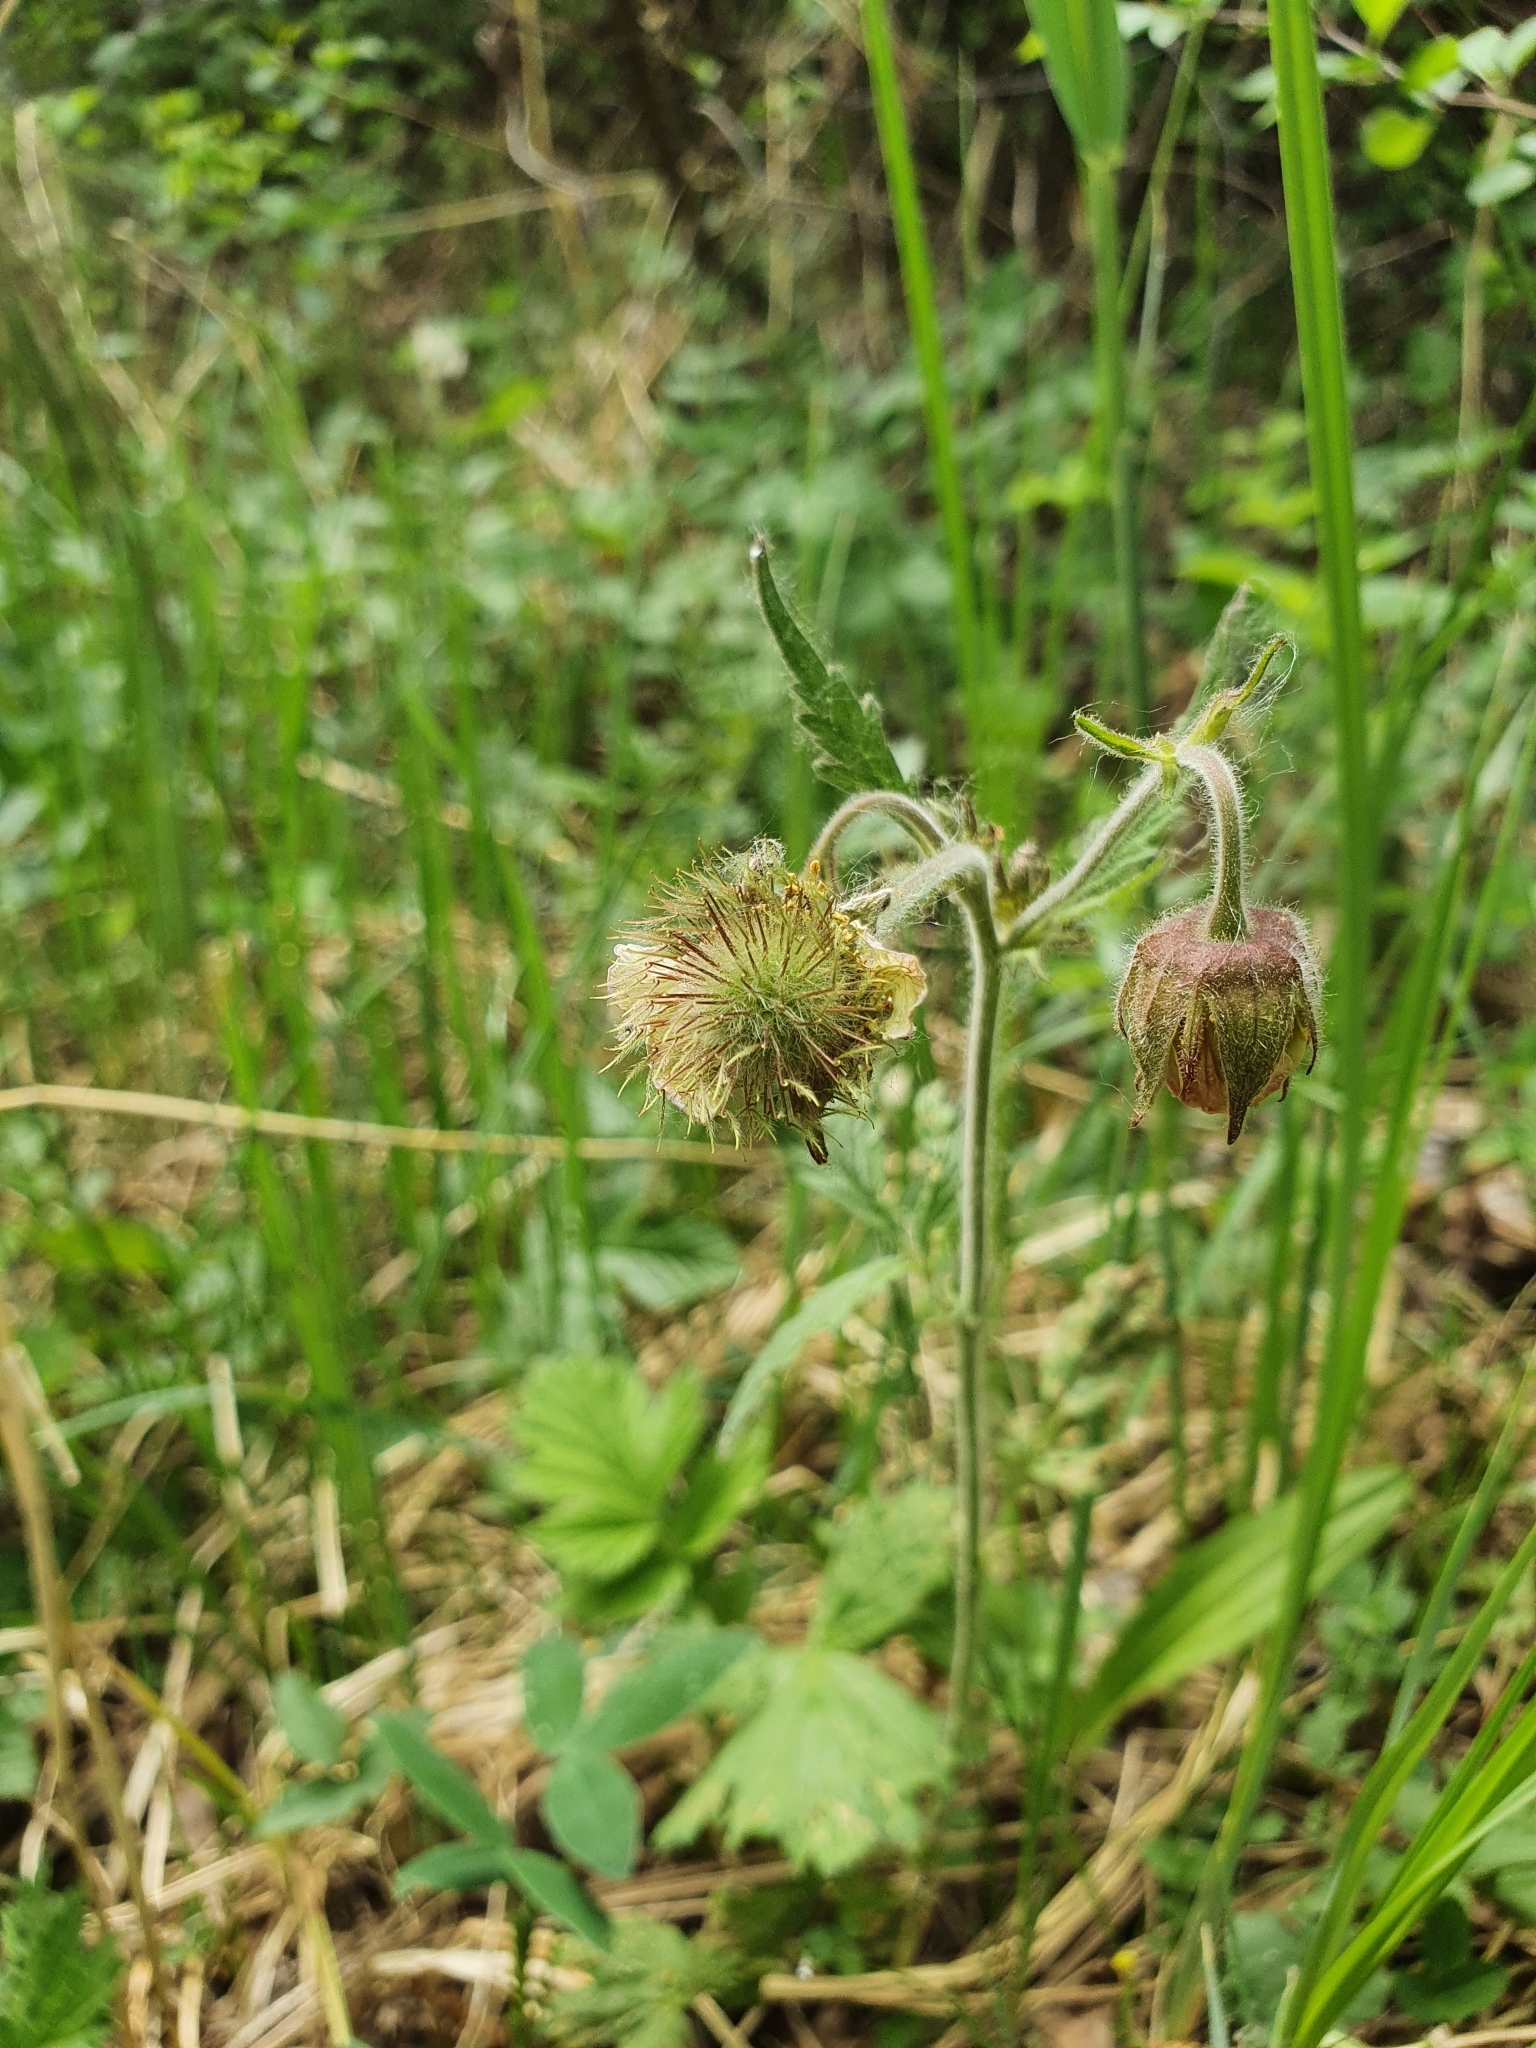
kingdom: Plantae
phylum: Tracheophyta
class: Magnoliopsida
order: Rosales
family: Rosaceae
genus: Geum
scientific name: Geum rivale
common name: Water avens
